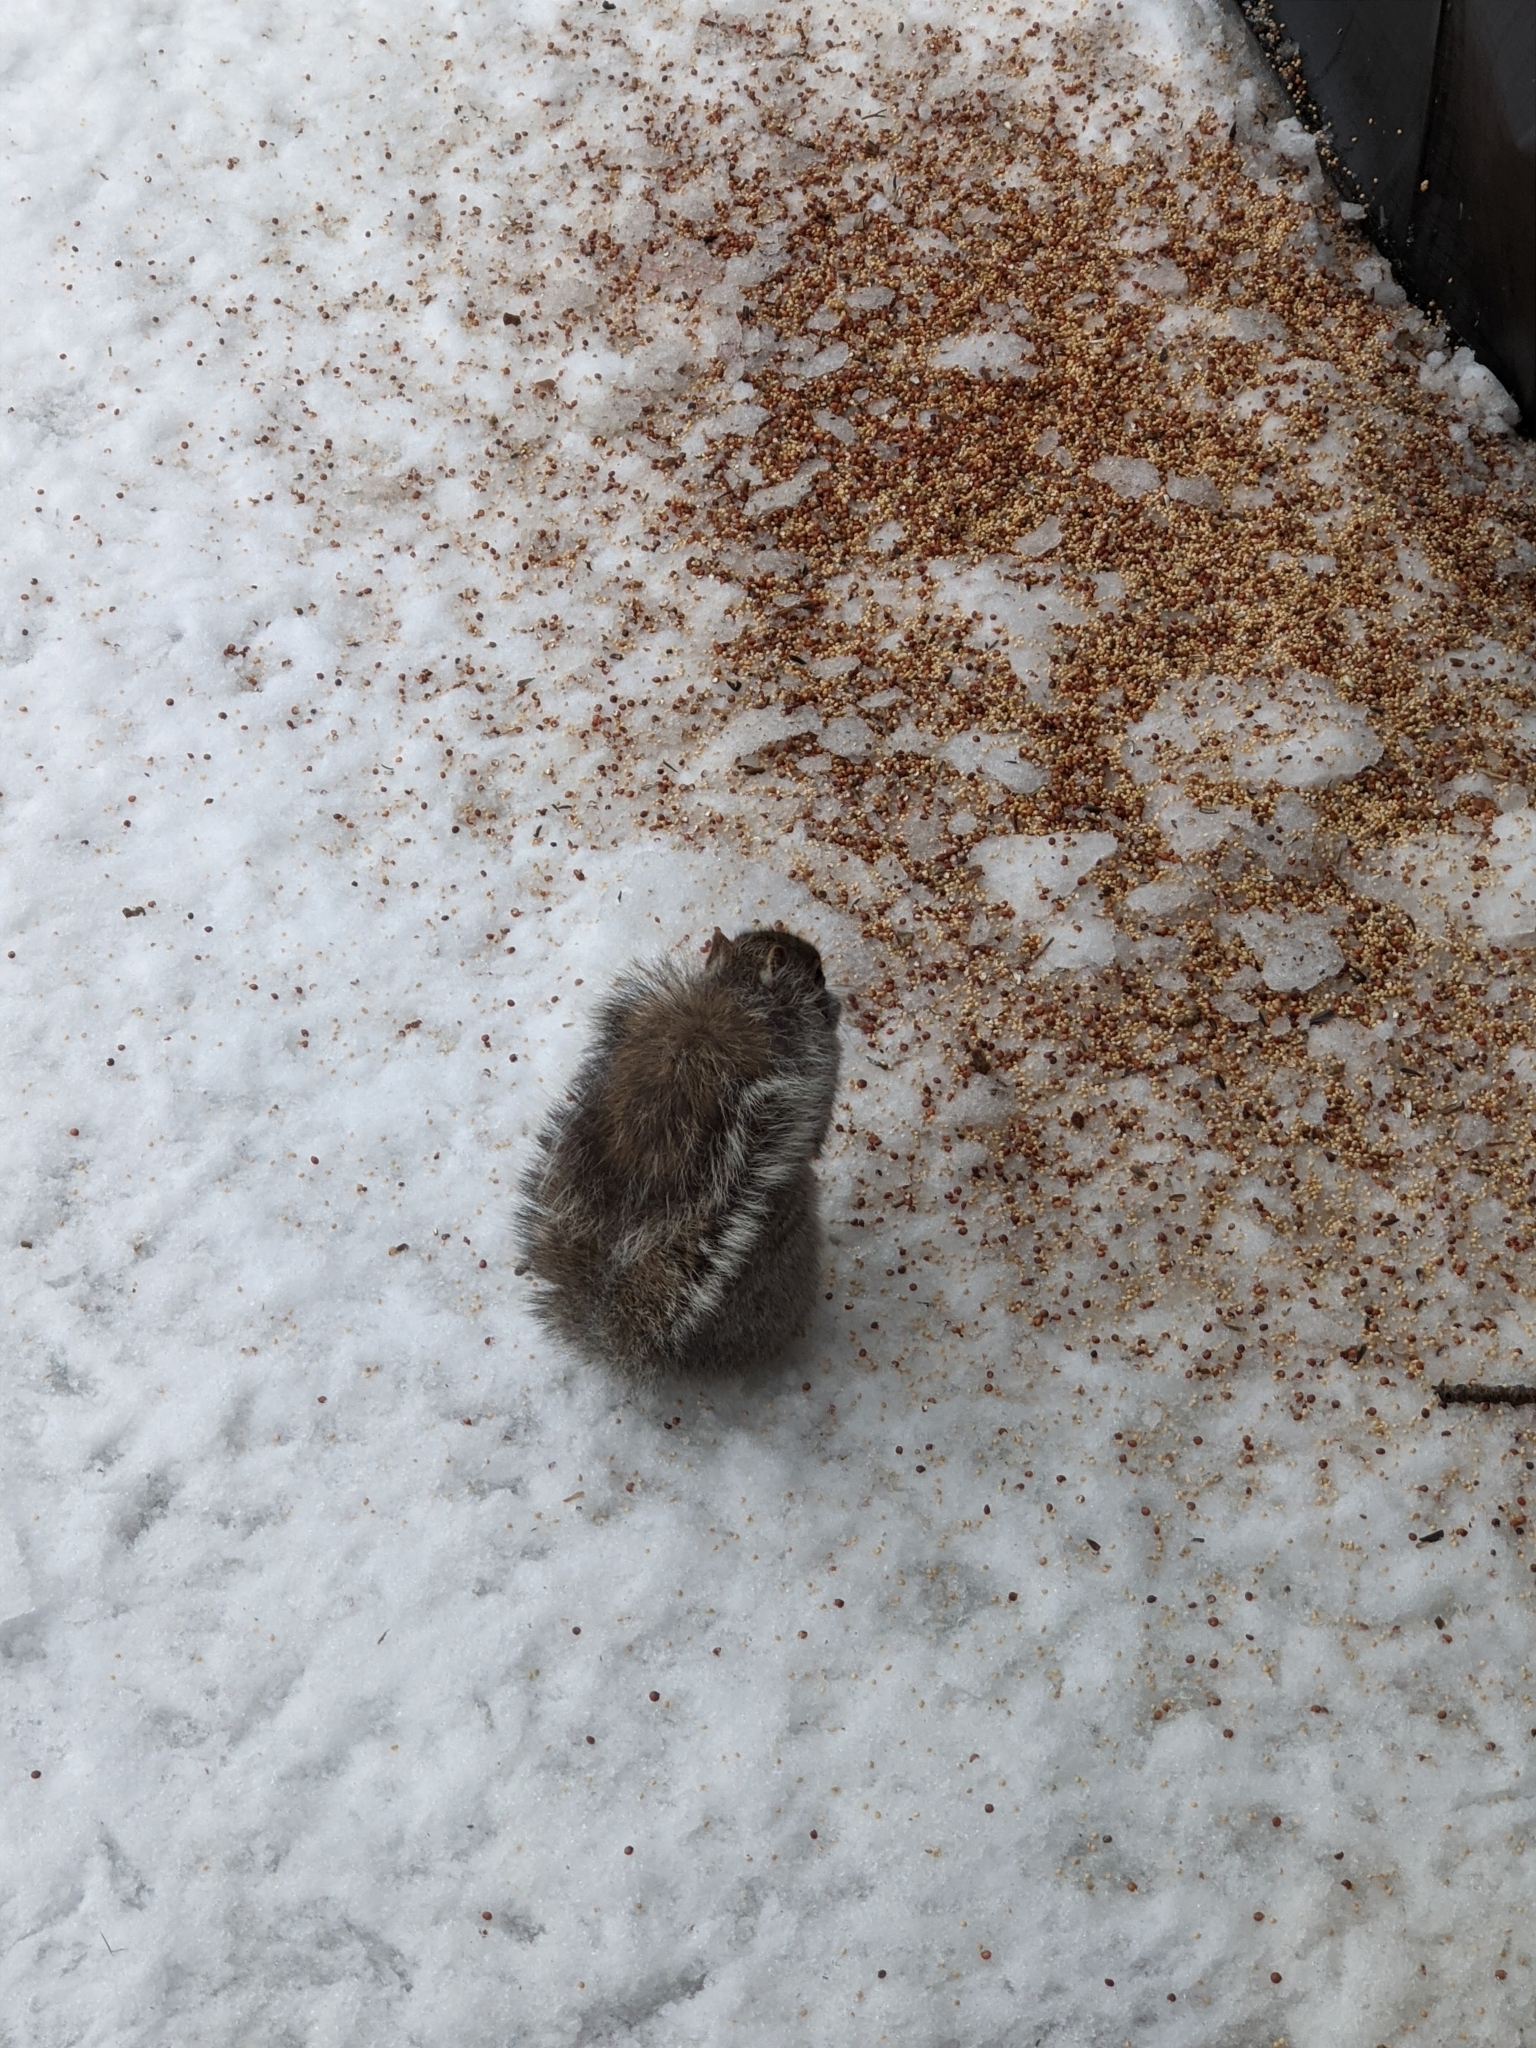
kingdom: Animalia
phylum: Chordata
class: Mammalia
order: Rodentia
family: Sciuridae
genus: Sciurus
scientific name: Sciurus carolinensis
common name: Eastern gray squirrel
